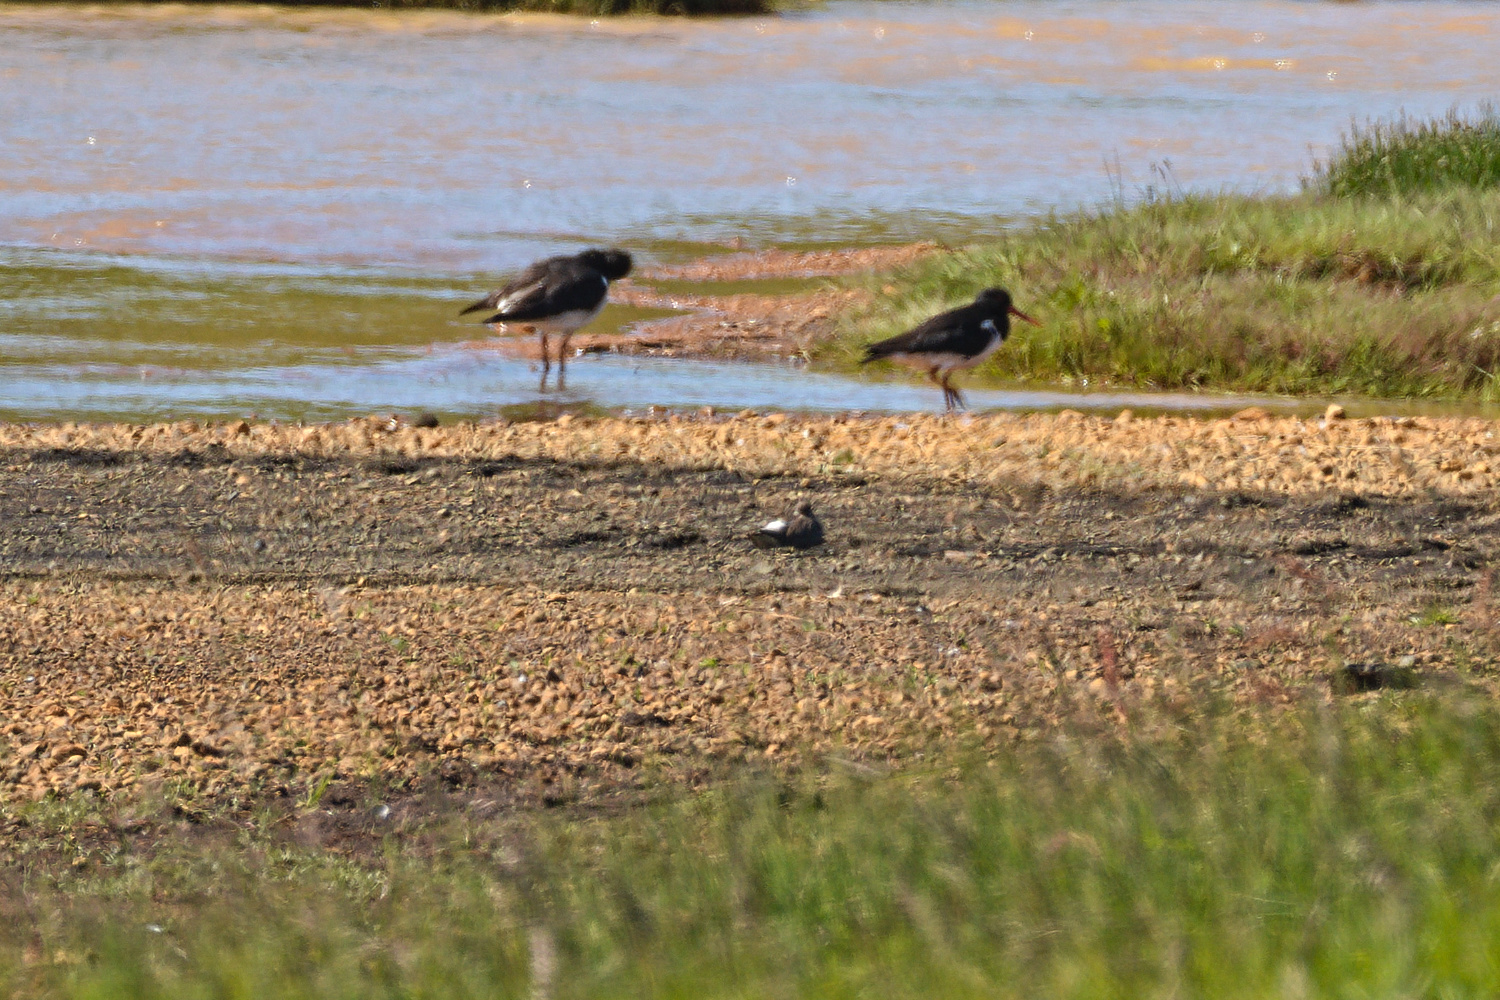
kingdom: Animalia
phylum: Chordata
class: Aves
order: Charadriiformes
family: Scolopacidae
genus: Tringa
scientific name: Tringa totanus
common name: Common redshank
